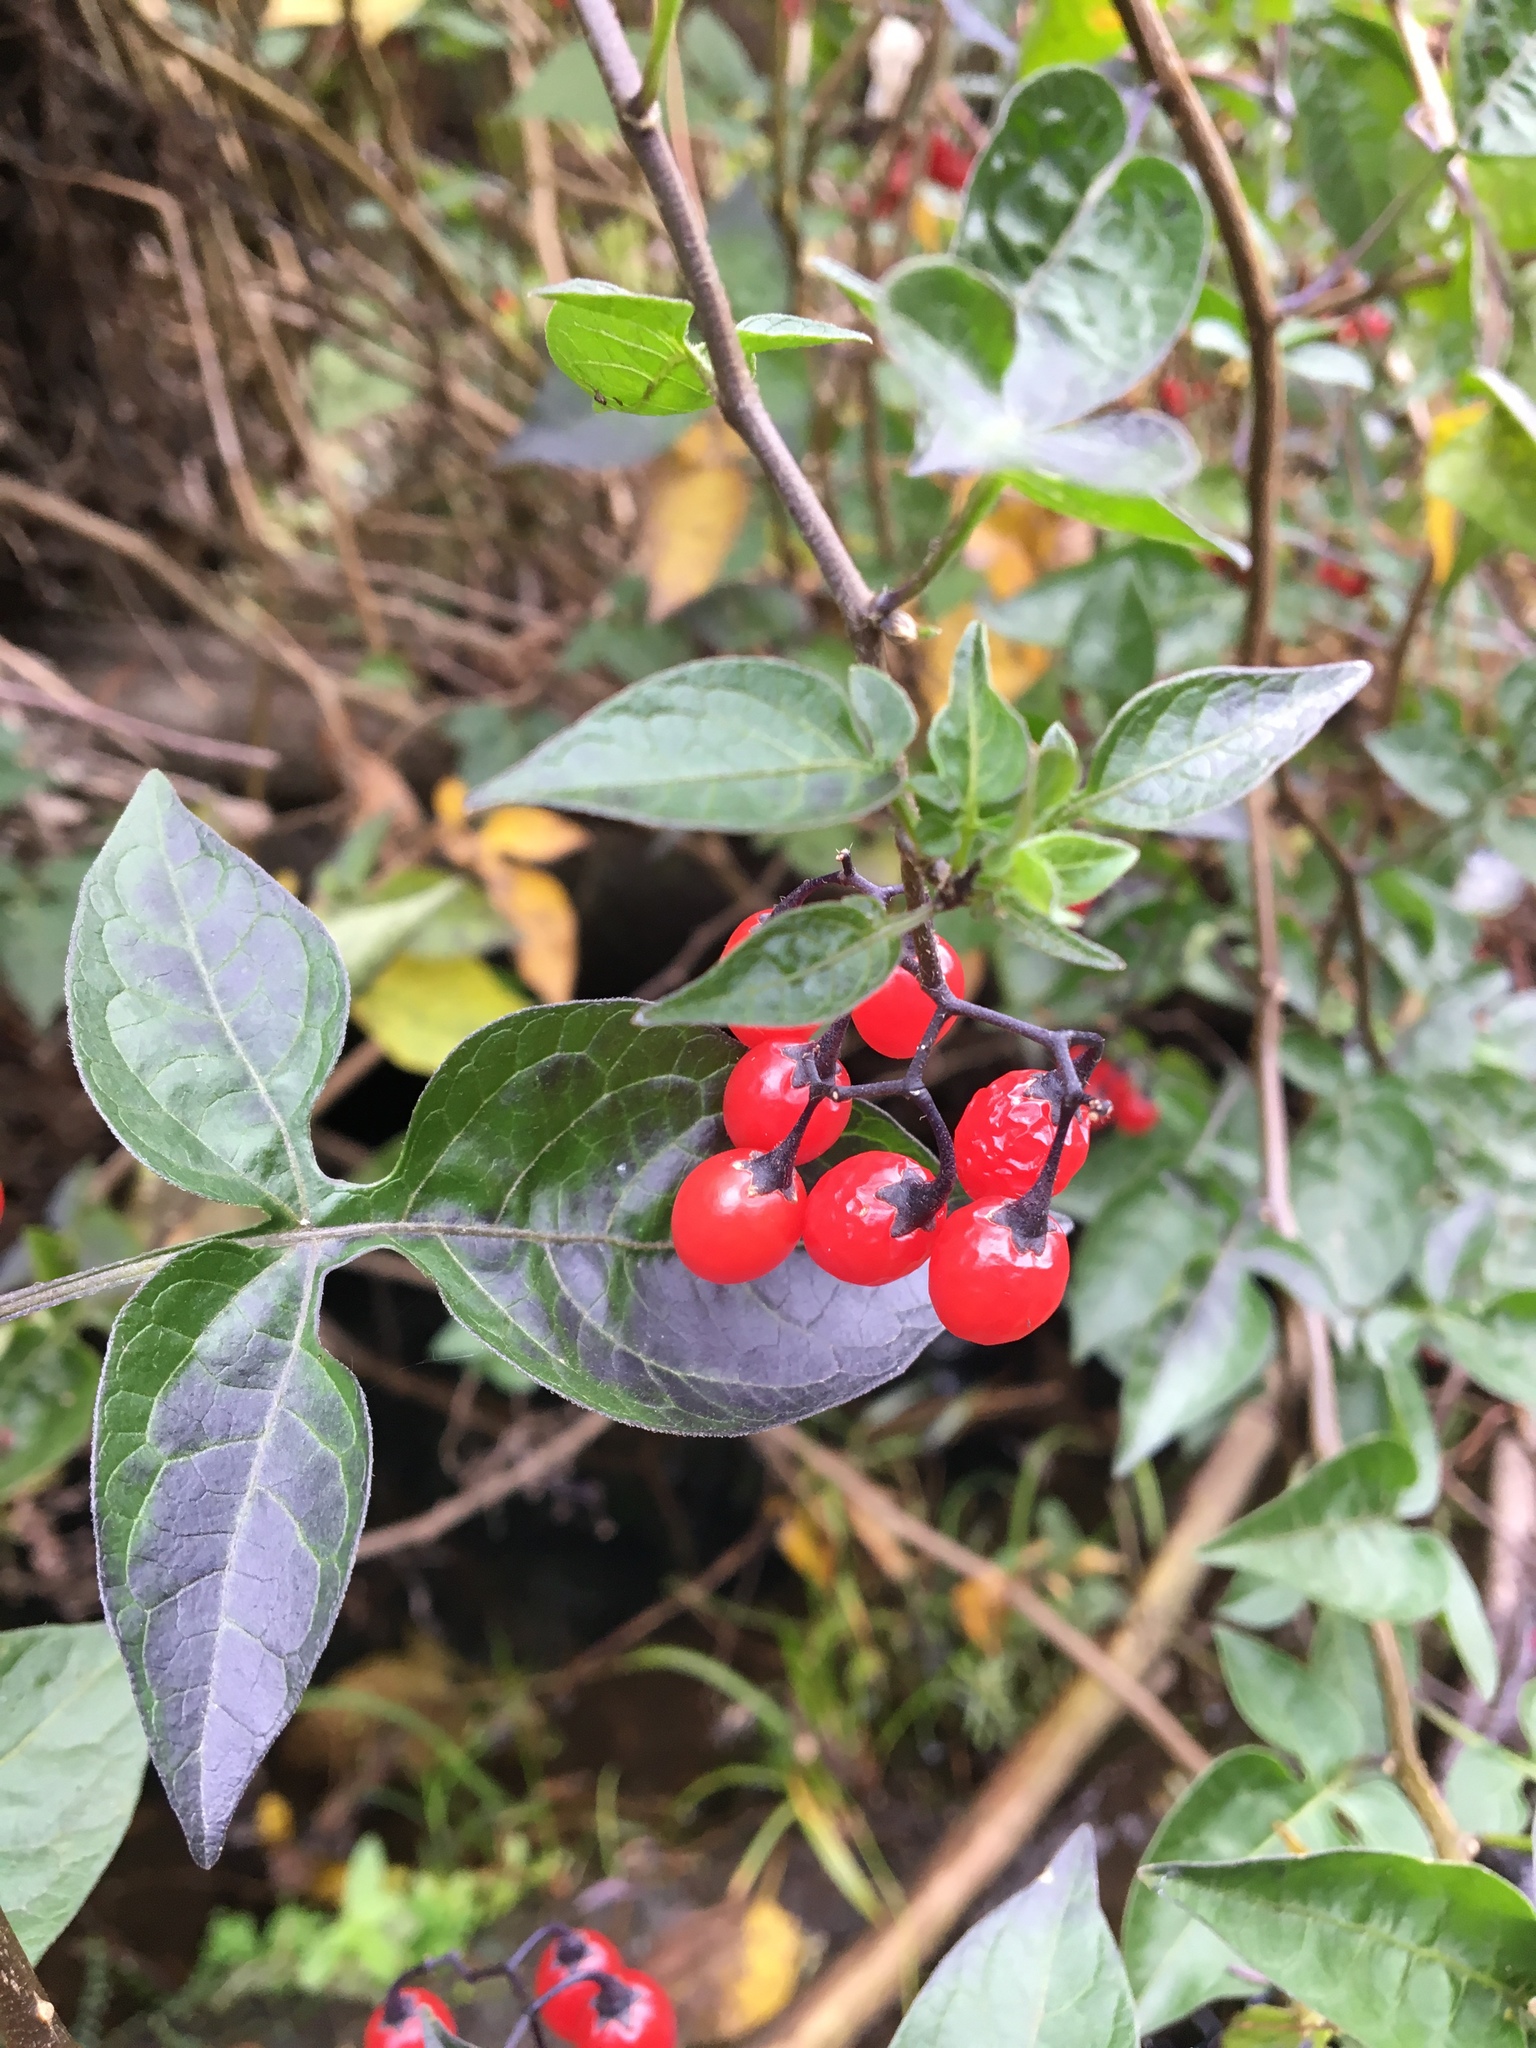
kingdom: Plantae
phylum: Tracheophyta
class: Magnoliopsida
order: Solanales
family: Solanaceae
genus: Solanum
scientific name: Solanum dulcamara
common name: Climbing nightshade
